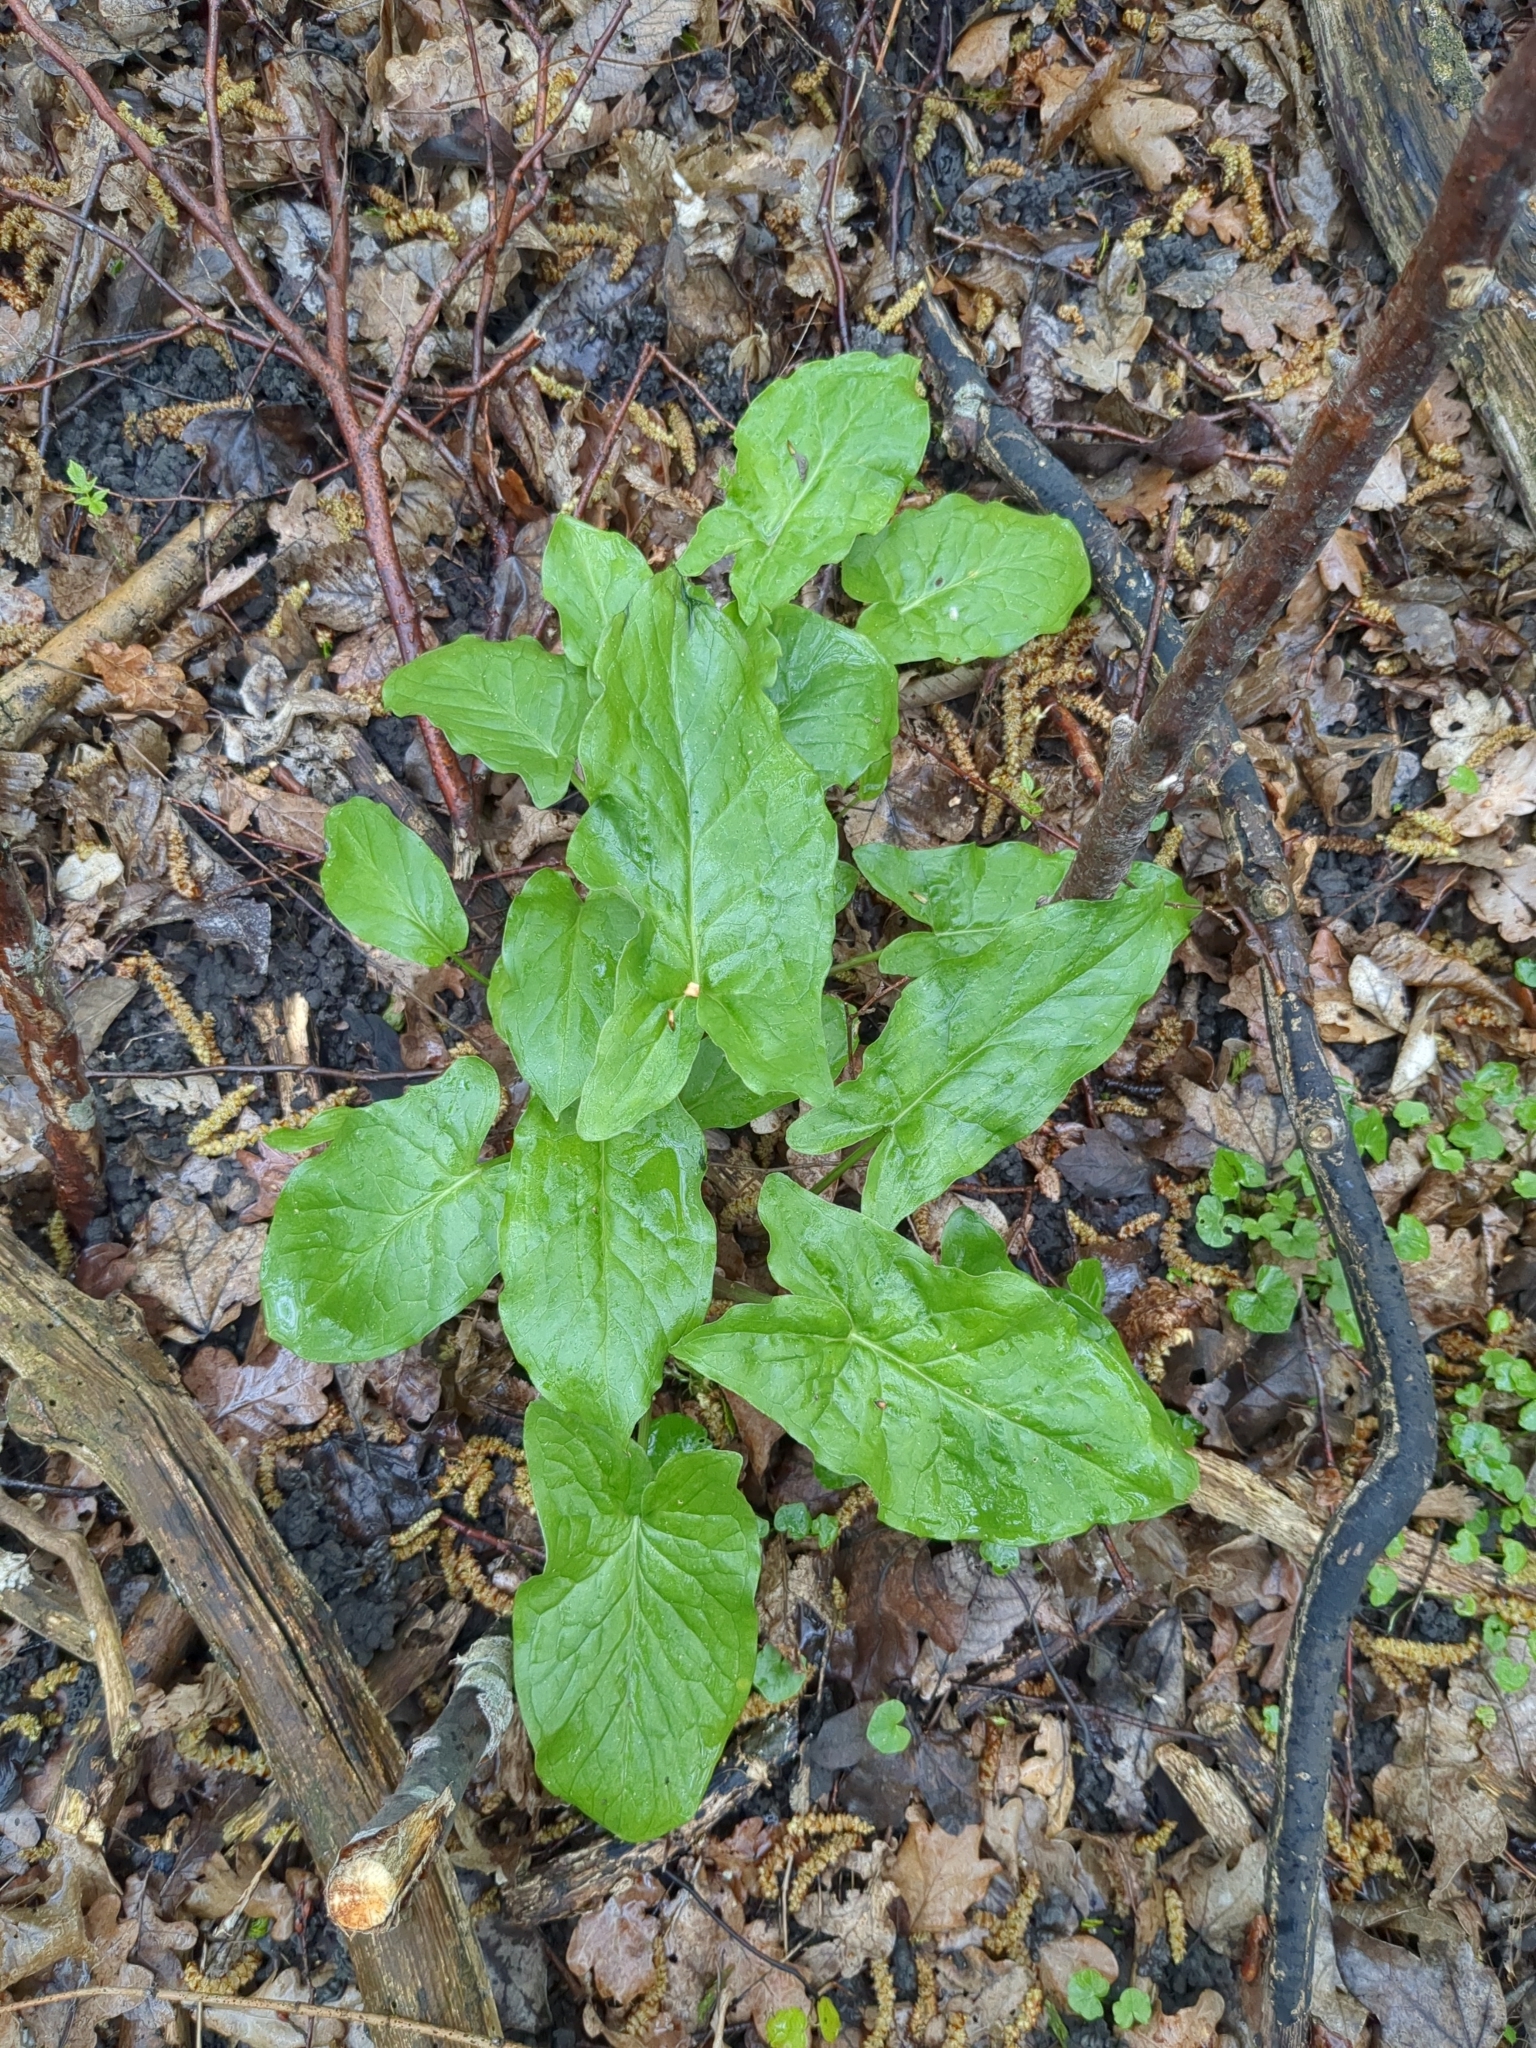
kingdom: Plantae
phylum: Tracheophyta
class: Liliopsida
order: Alismatales
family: Araceae
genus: Arum
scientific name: Arum maculatum
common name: Lords-and-ladies
